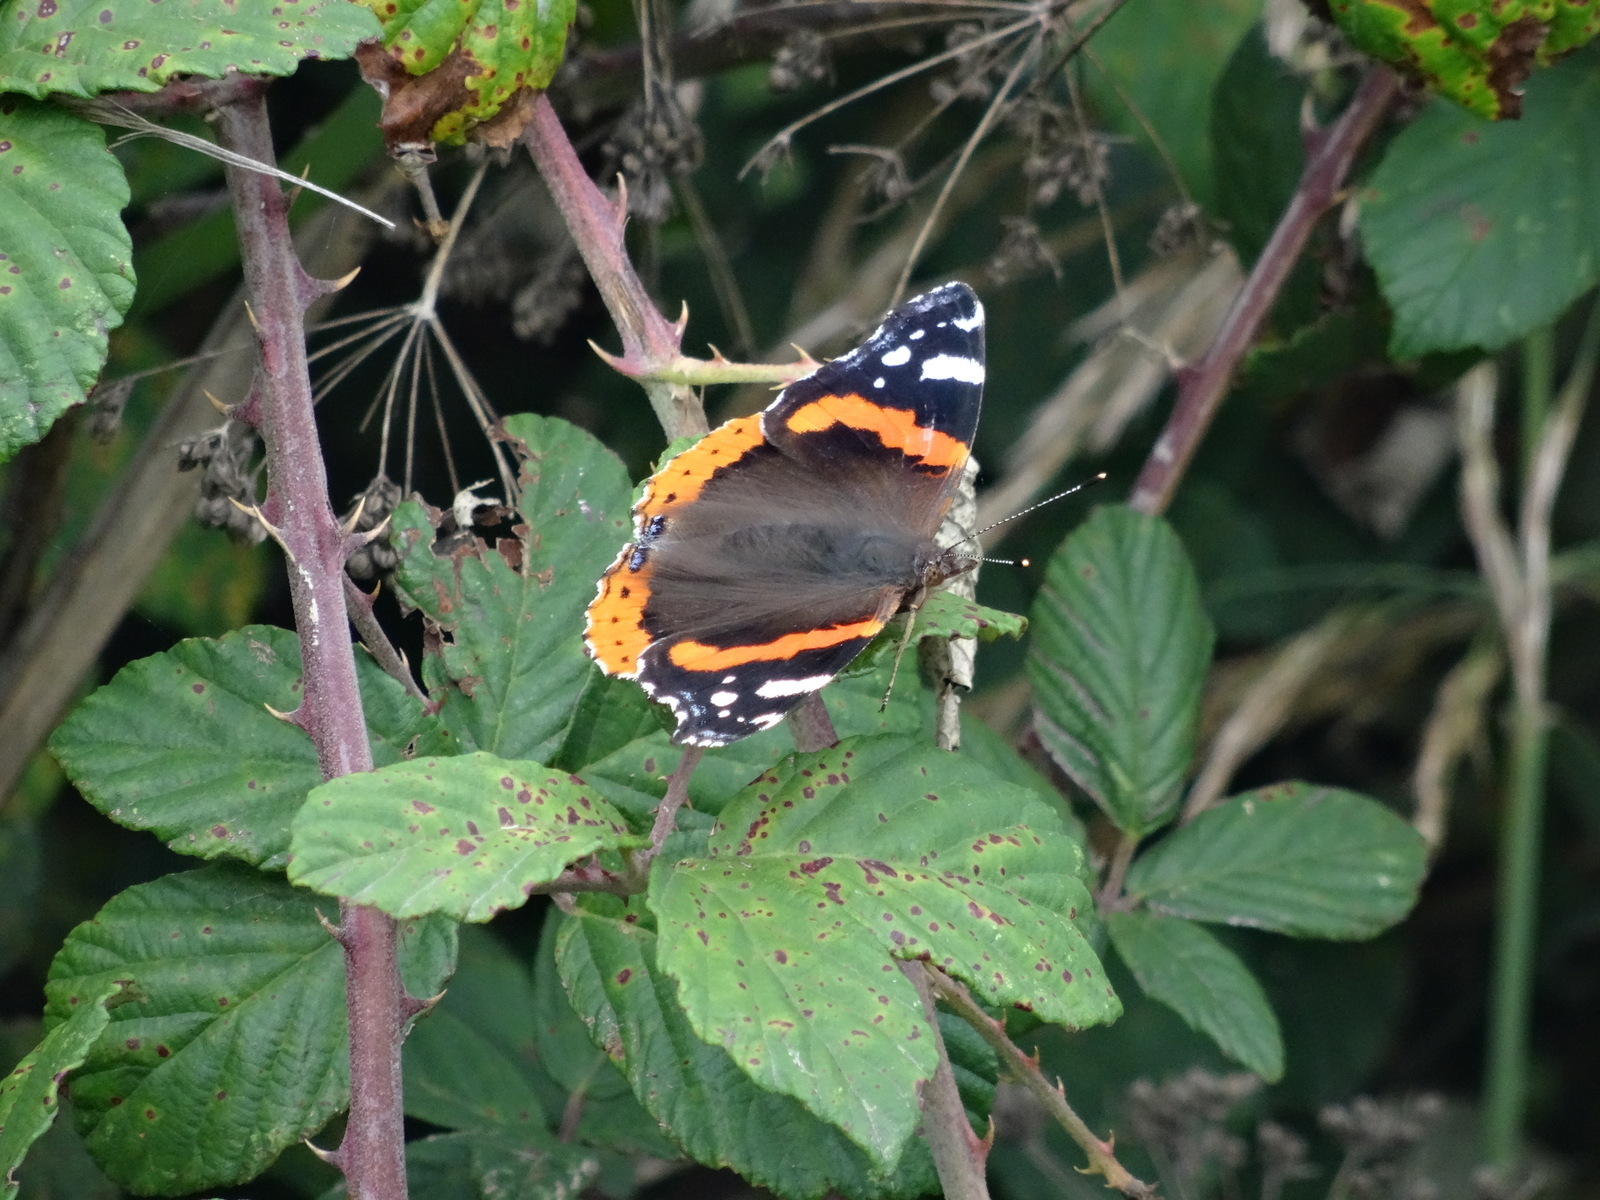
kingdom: Animalia
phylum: Arthropoda
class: Insecta
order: Lepidoptera
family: Nymphalidae
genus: Vanessa
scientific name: Vanessa atalanta
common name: Red admiral
